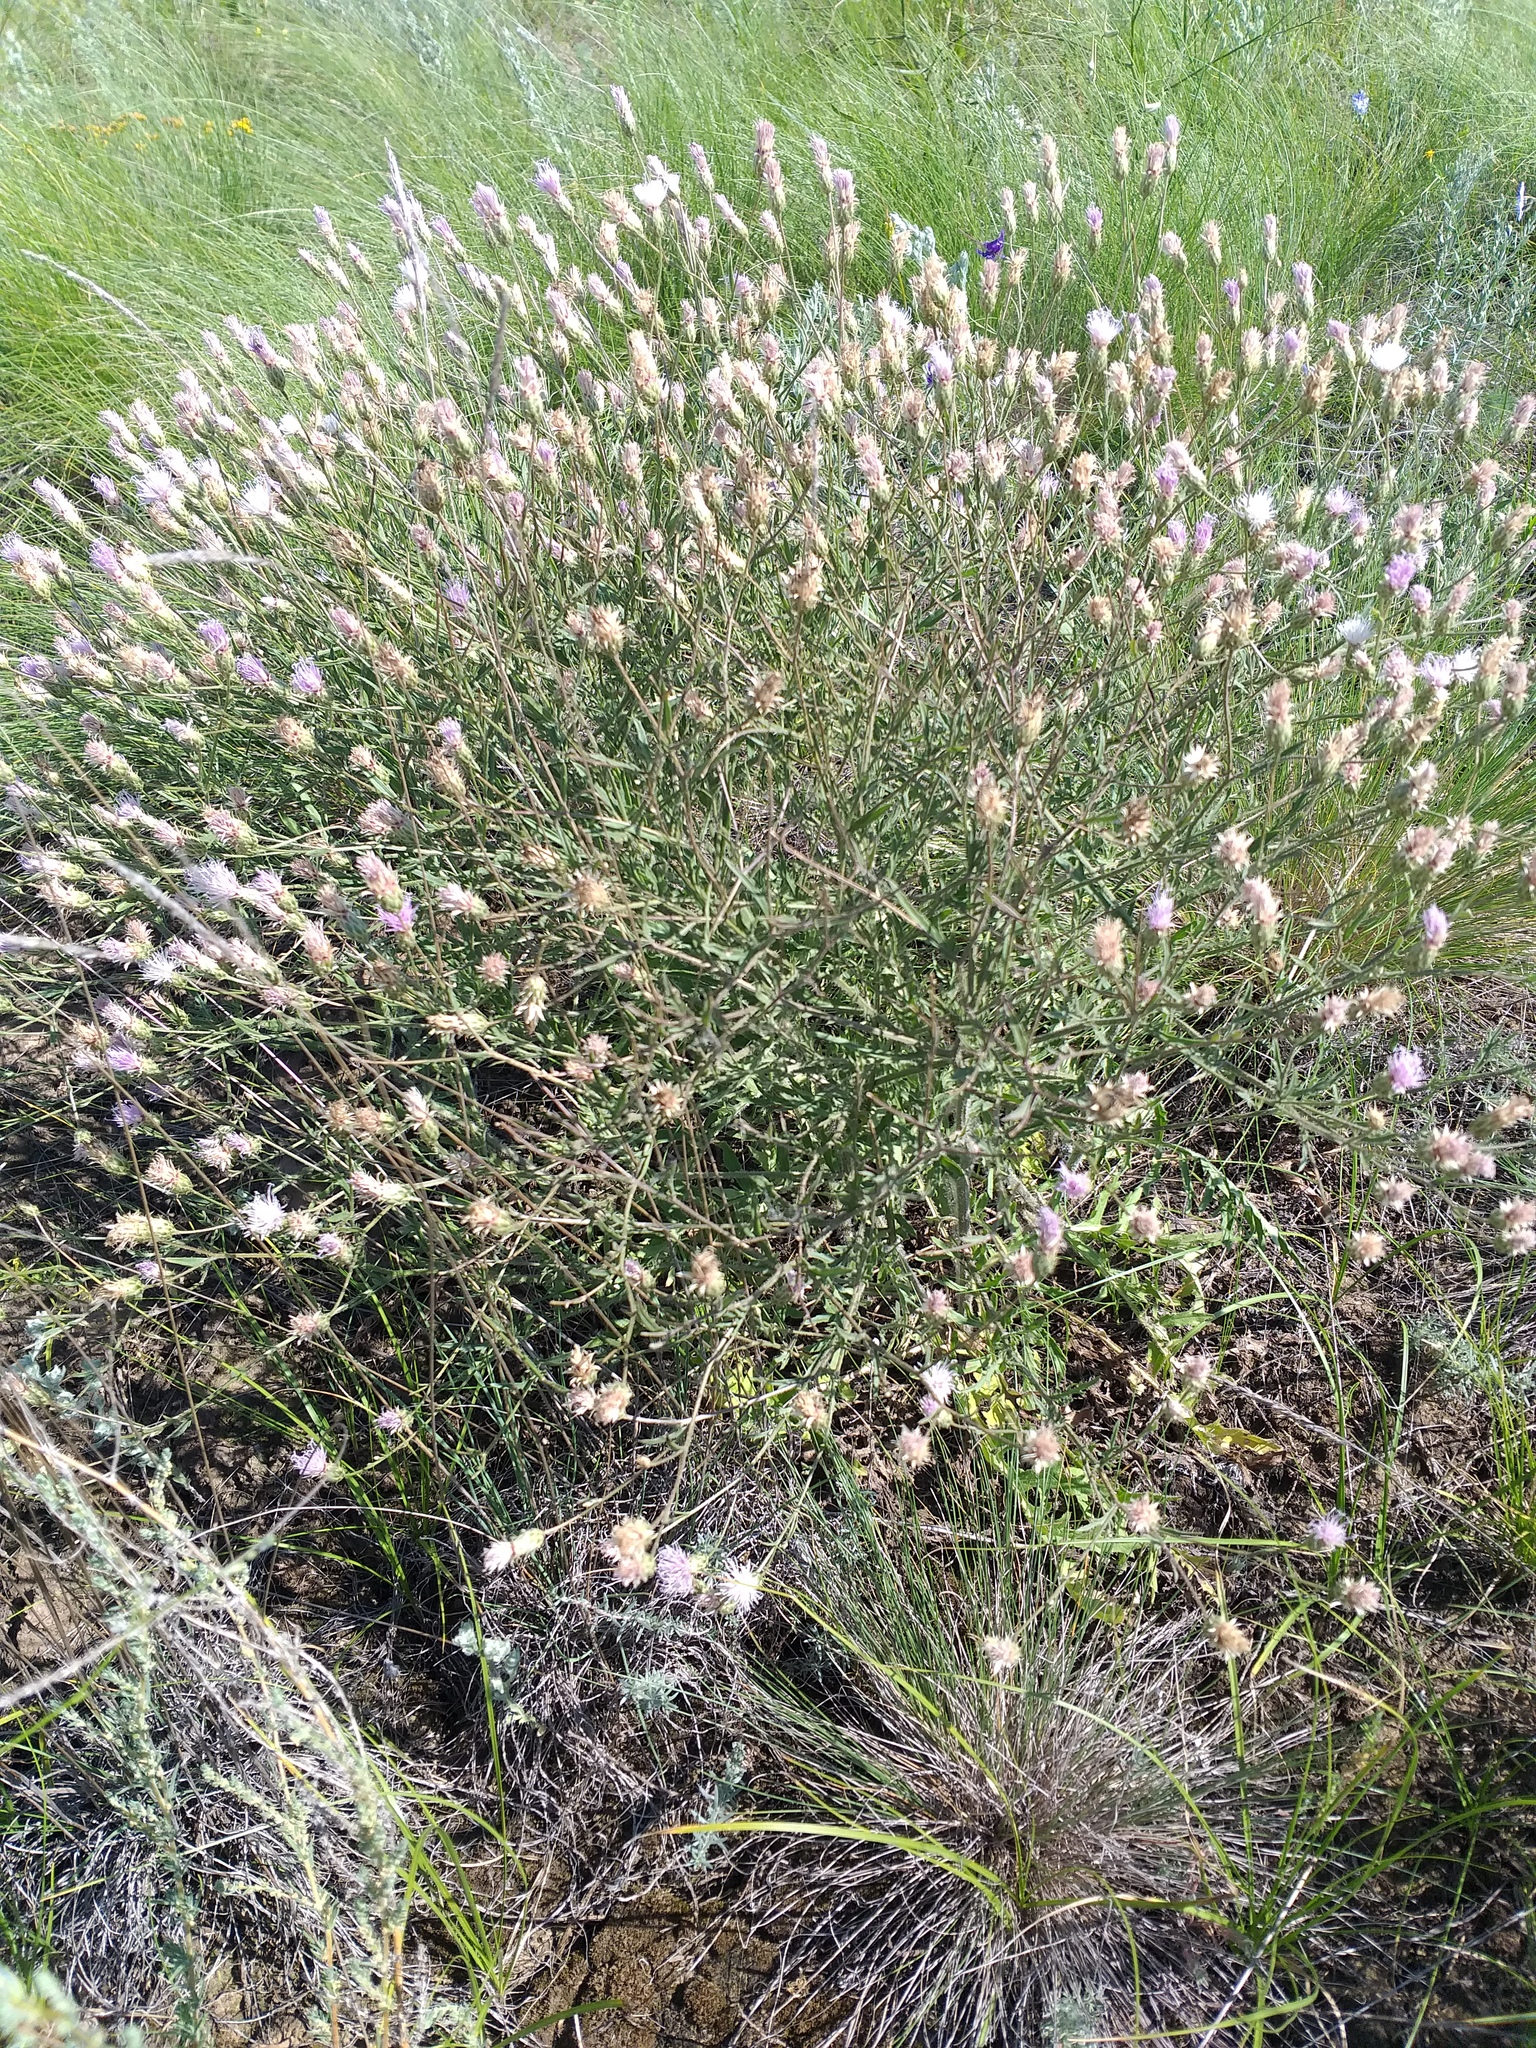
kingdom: Plantae
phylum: Tracheophyta
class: Magnoliopsida
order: Asterales
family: Asteraceae
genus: Klasea
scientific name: Klasea erucifolia
